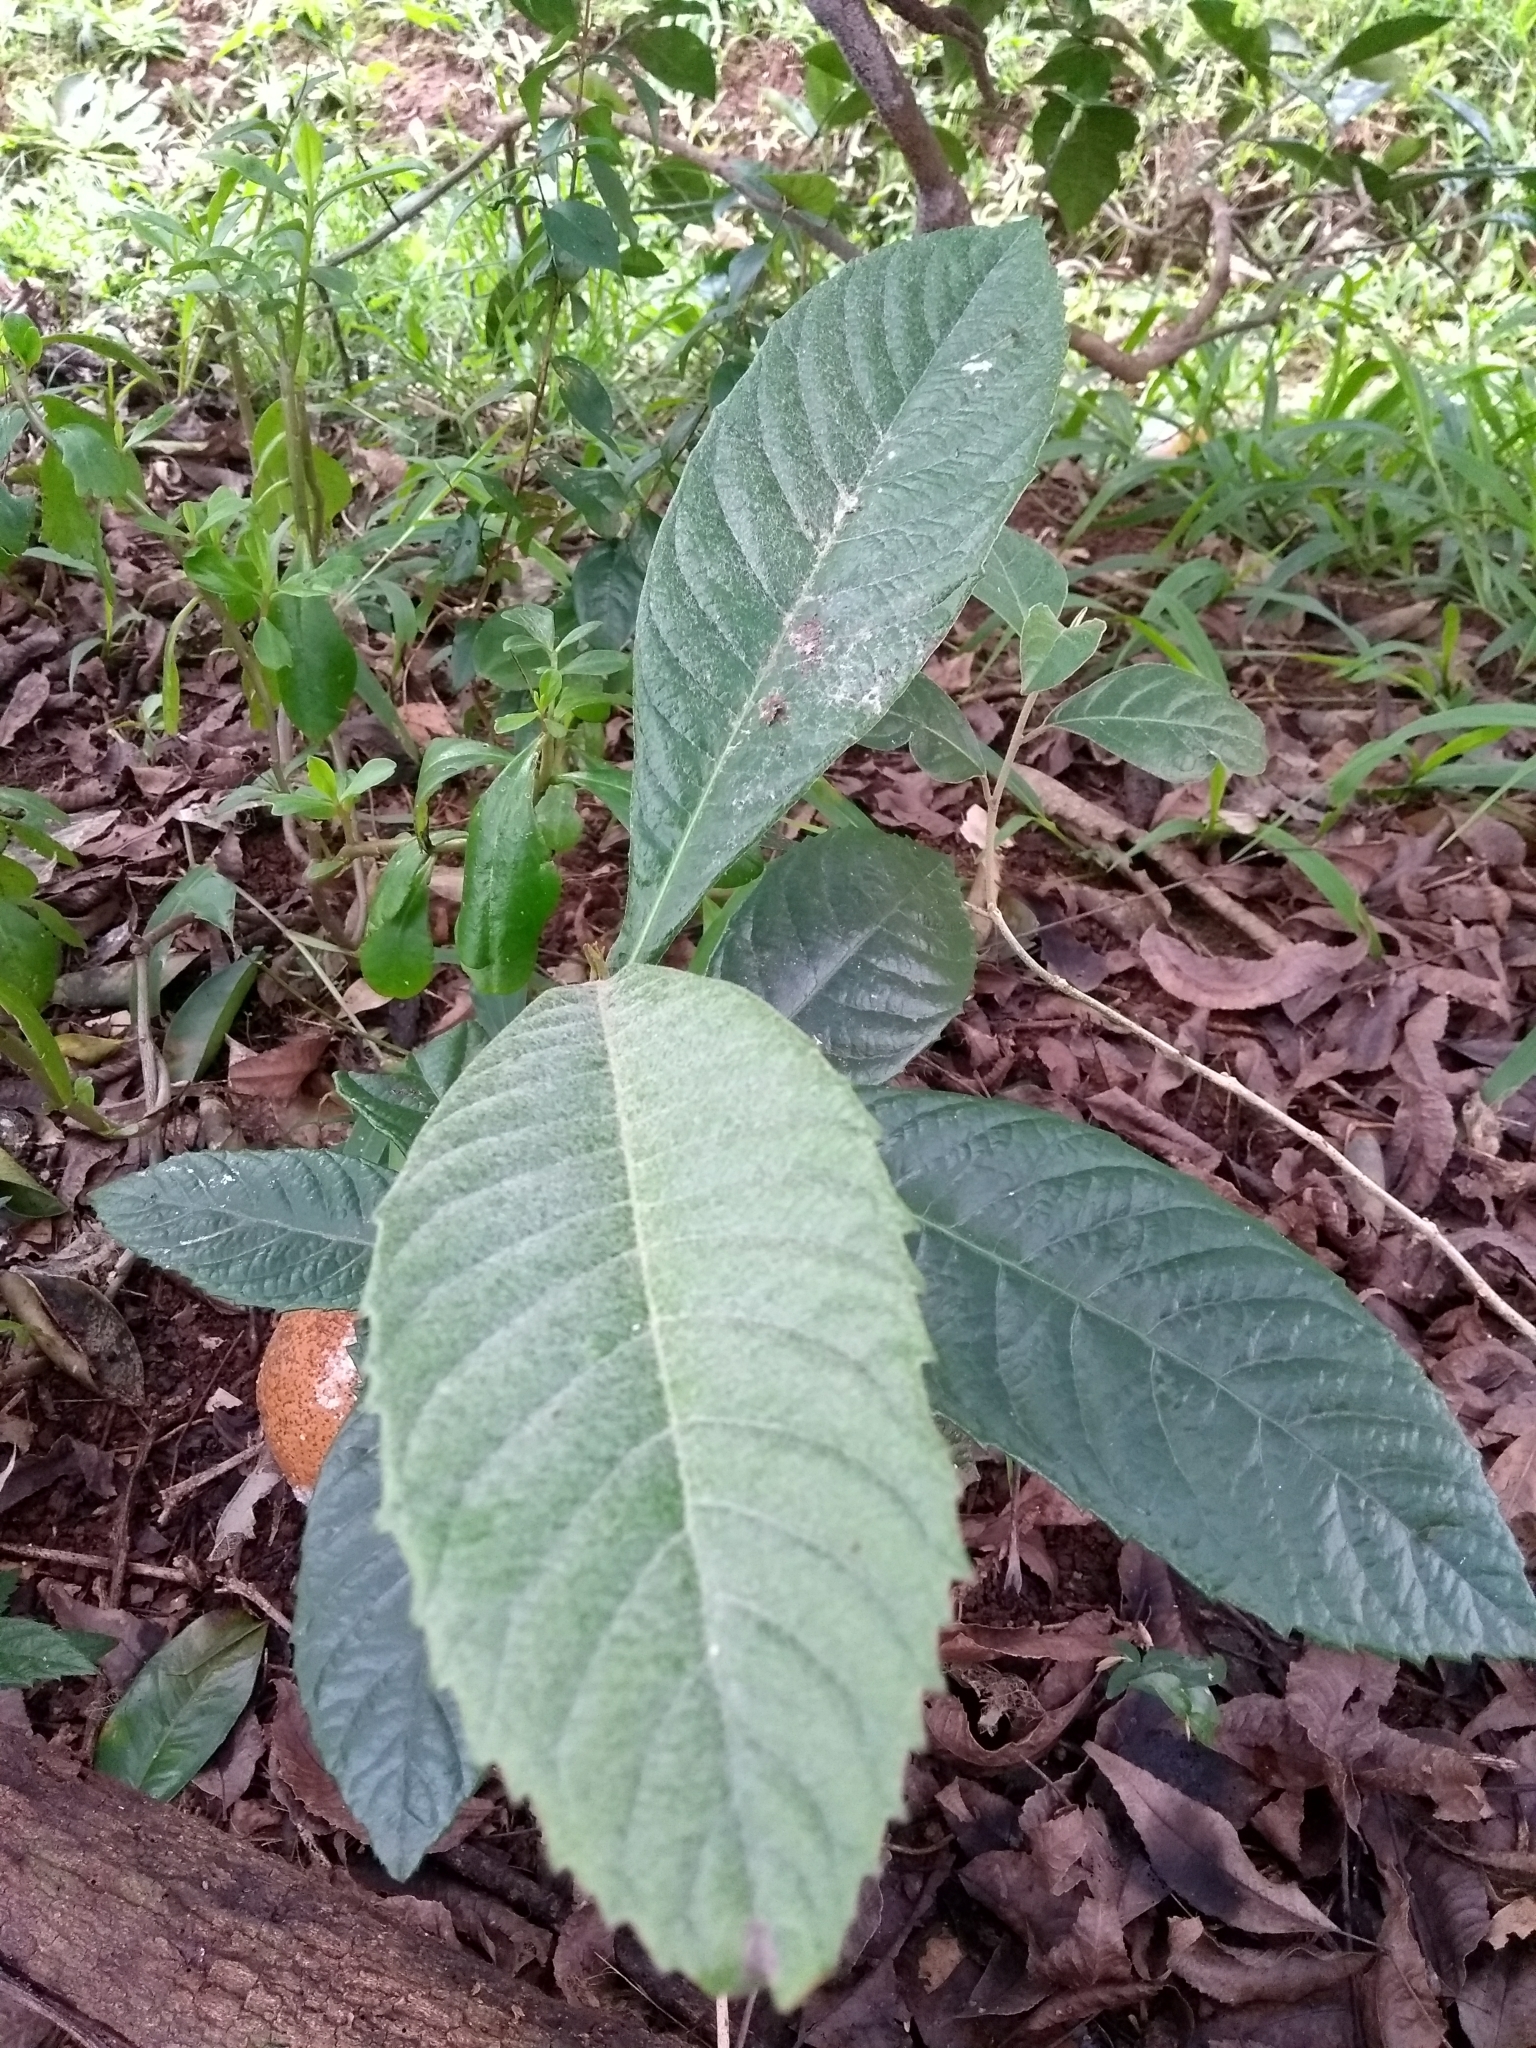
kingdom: Plantae
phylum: Tracheophyta
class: Magnoliopsida
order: Rosales
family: Rosaceae
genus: Rhaphiolepis
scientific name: Rhaphiolepis bibas
